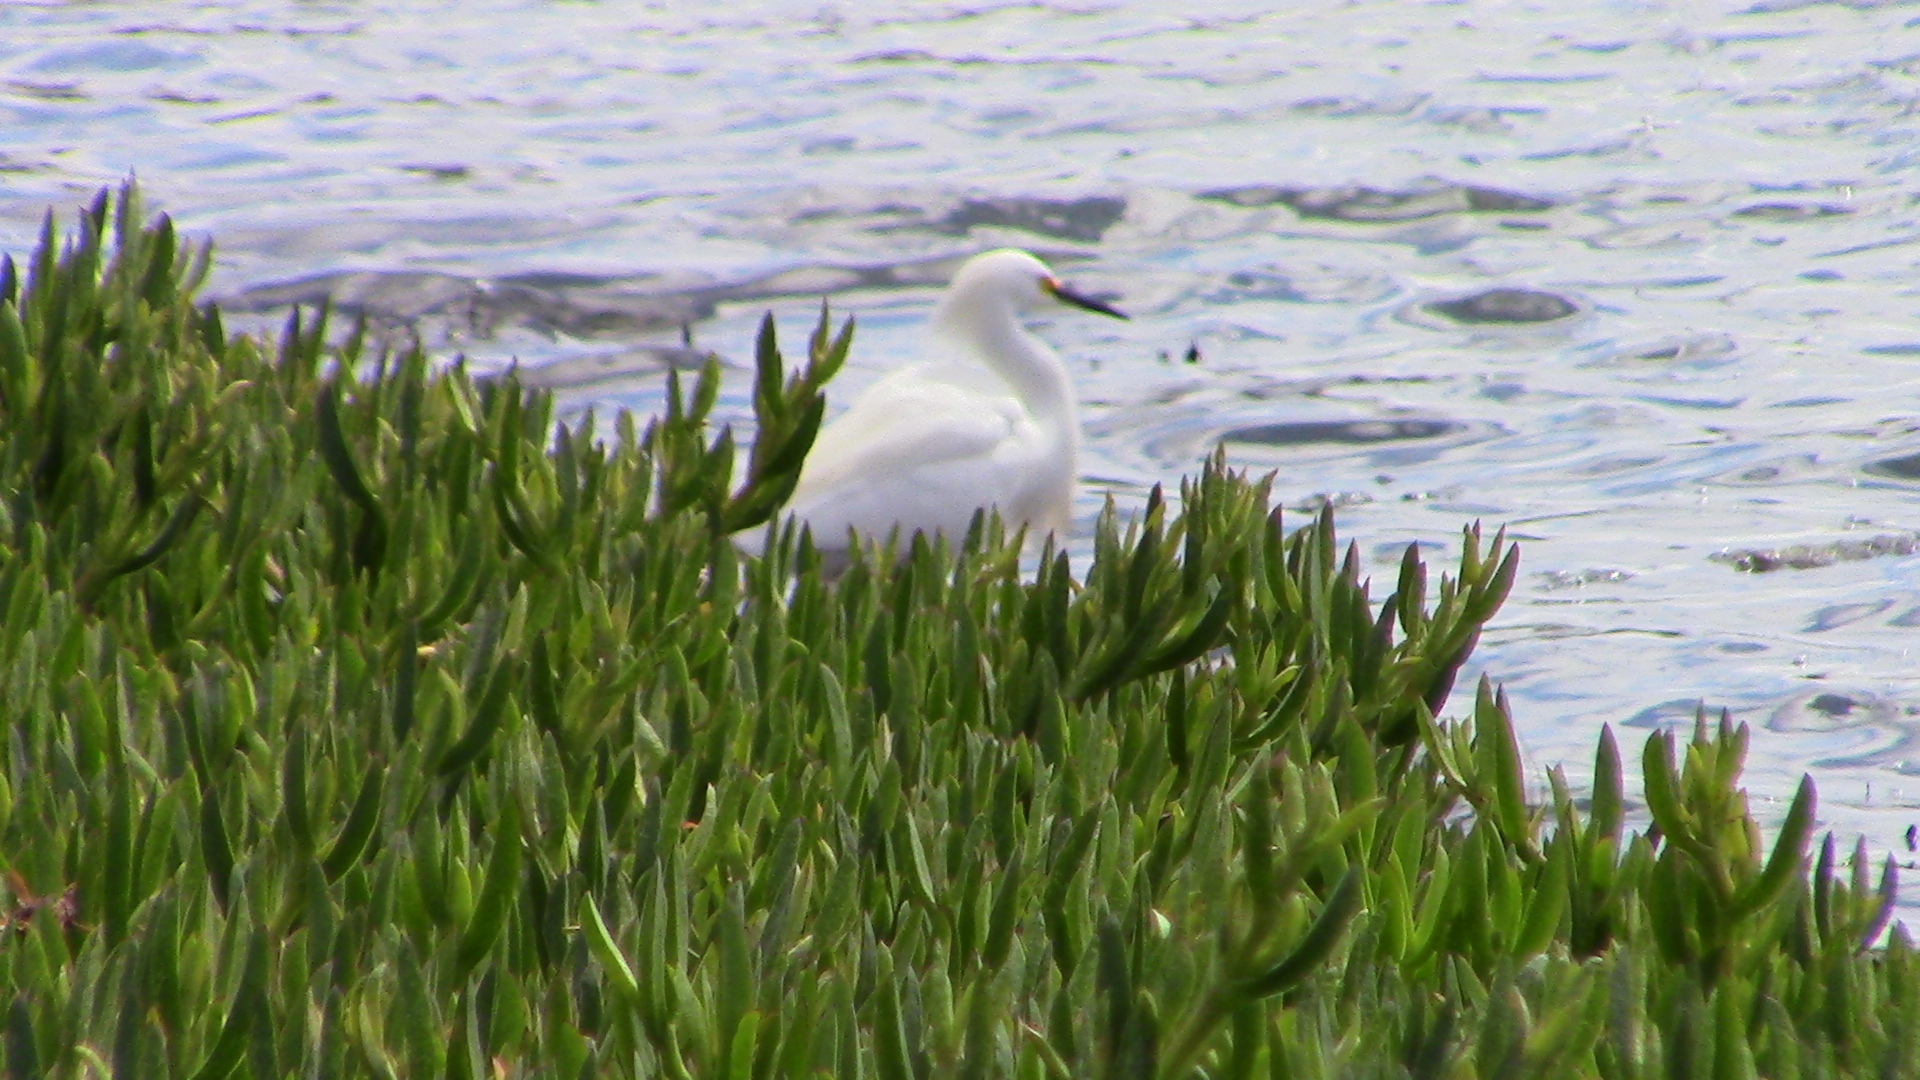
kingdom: Animalia
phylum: Chordata
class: Aves
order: Pelecaniformes
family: Ardeidae
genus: Egretta
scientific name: Egretta thula
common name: Snowy egret
